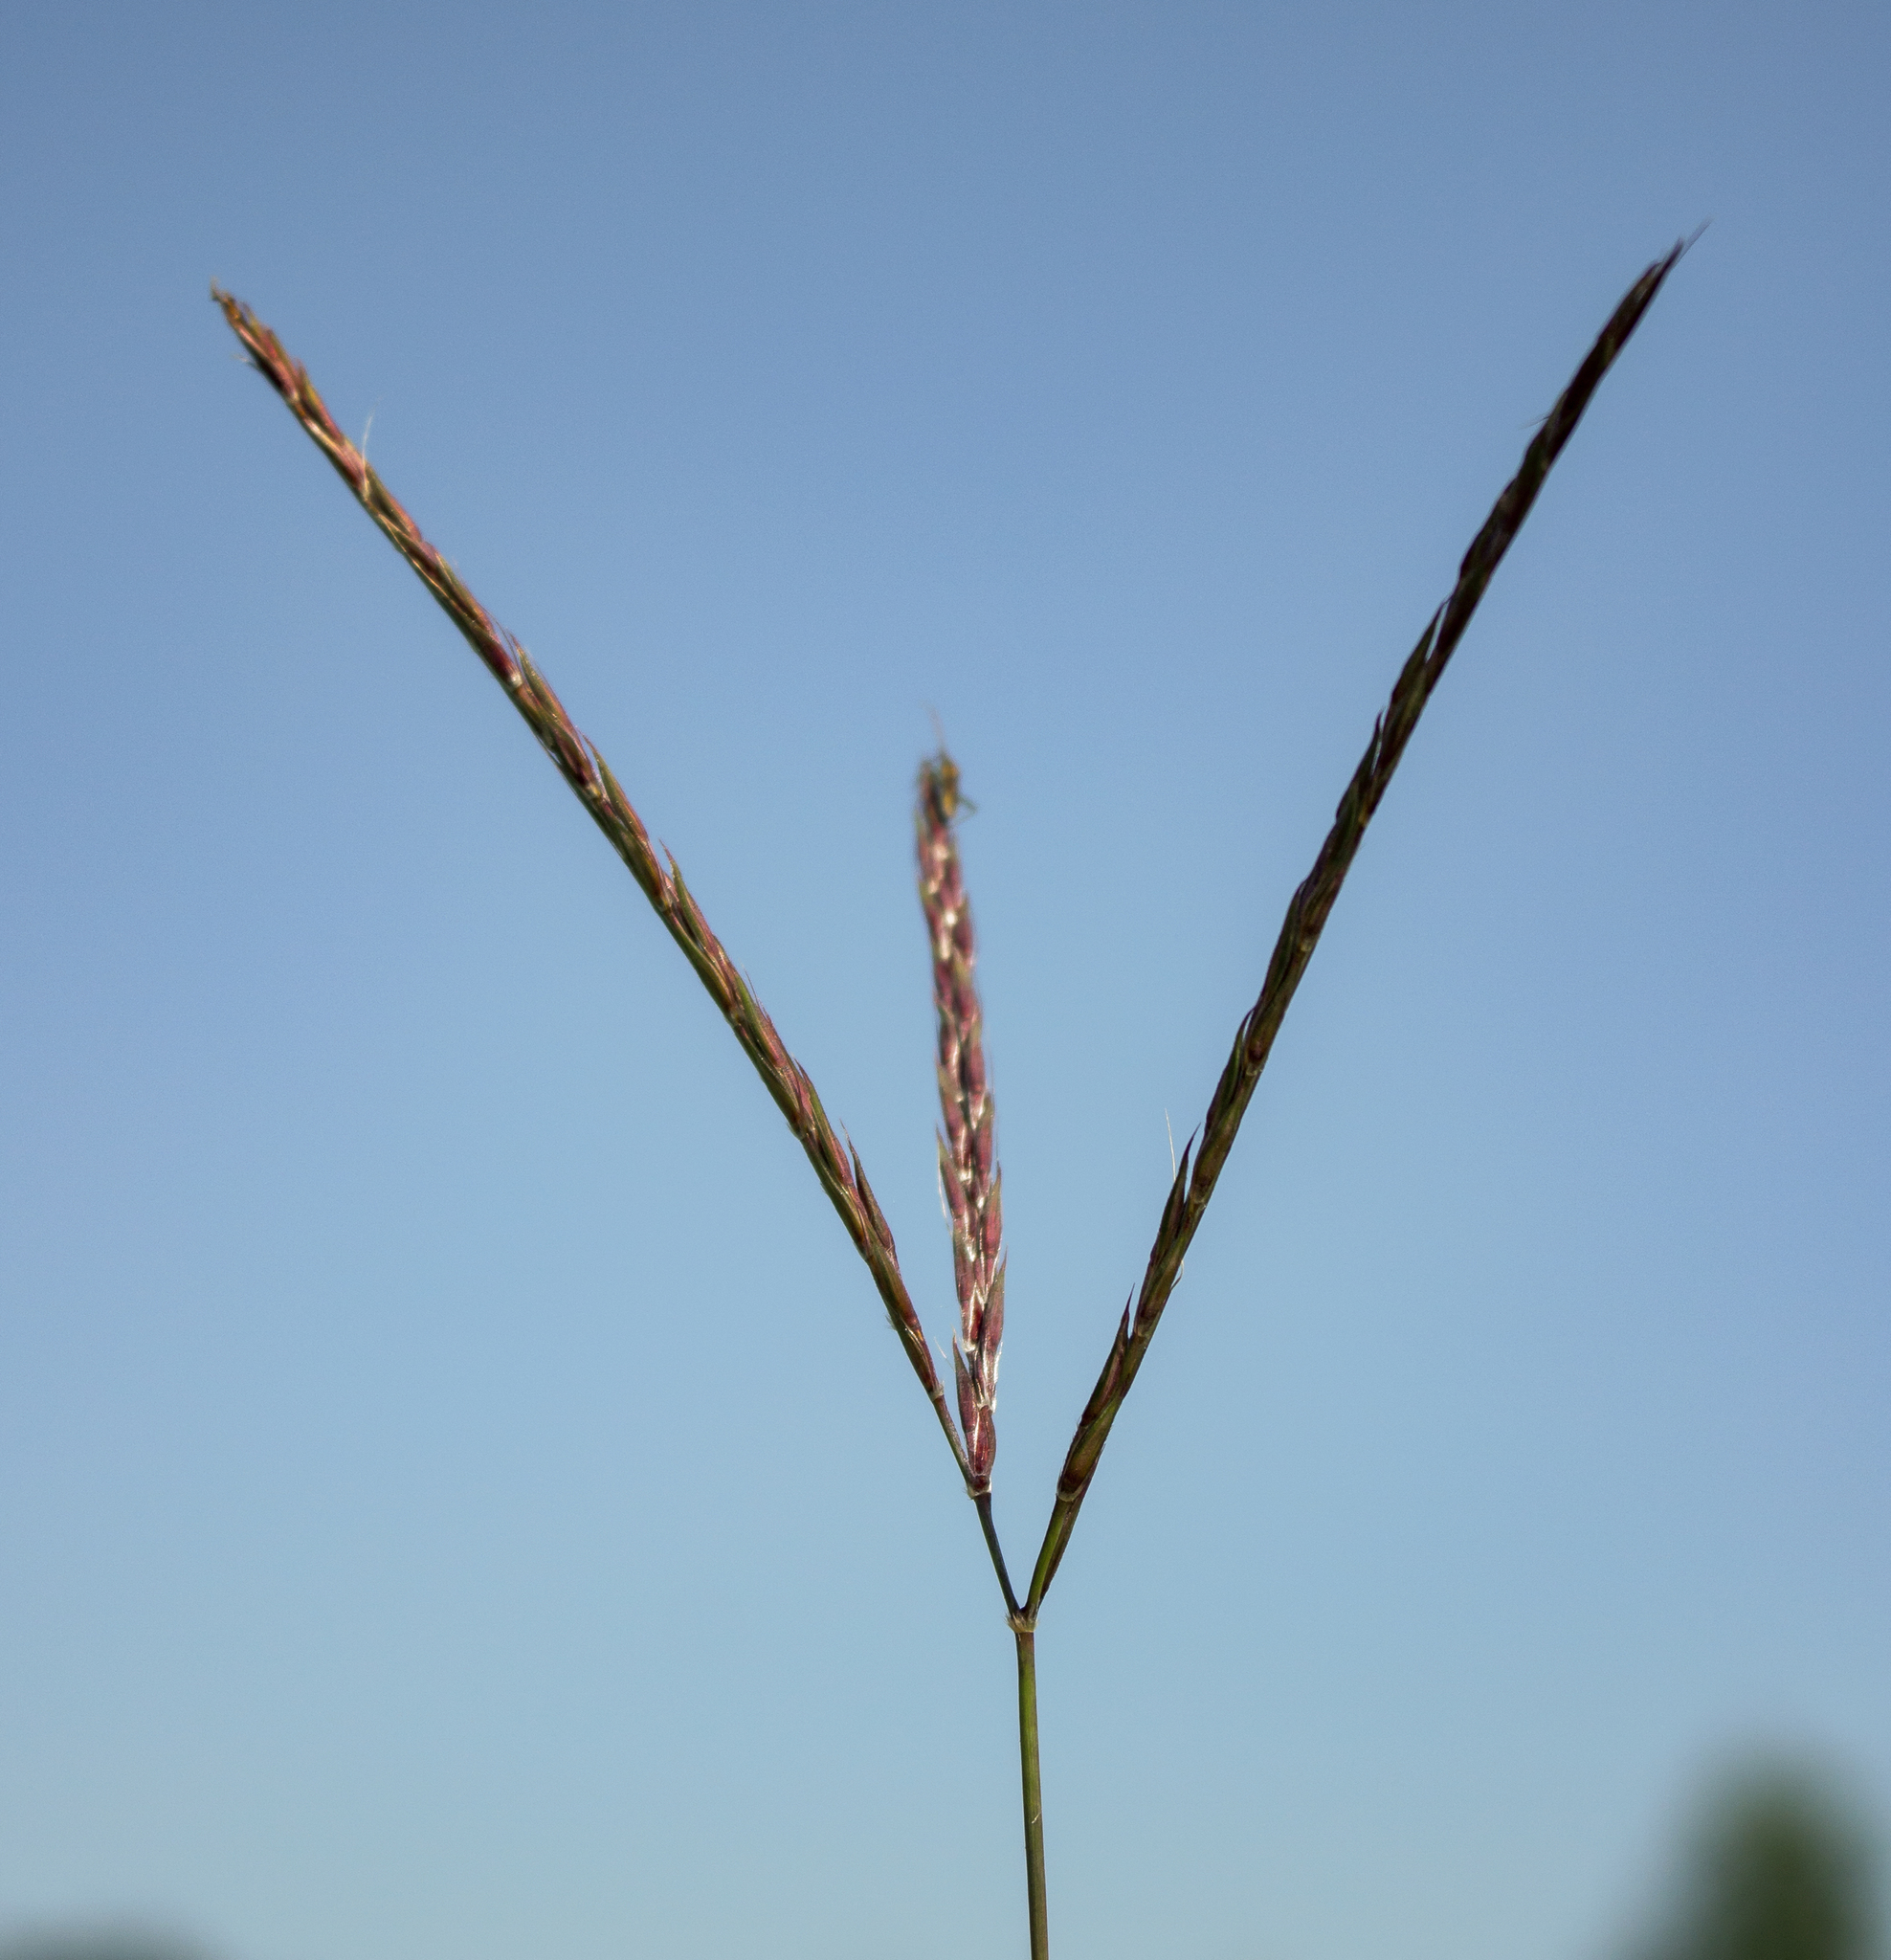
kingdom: Plantae
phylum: Tracheophyta
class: Liliopsida
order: Poales
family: Poaceae
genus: Andropogon
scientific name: Andropogon gerardi
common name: Big bluestem
